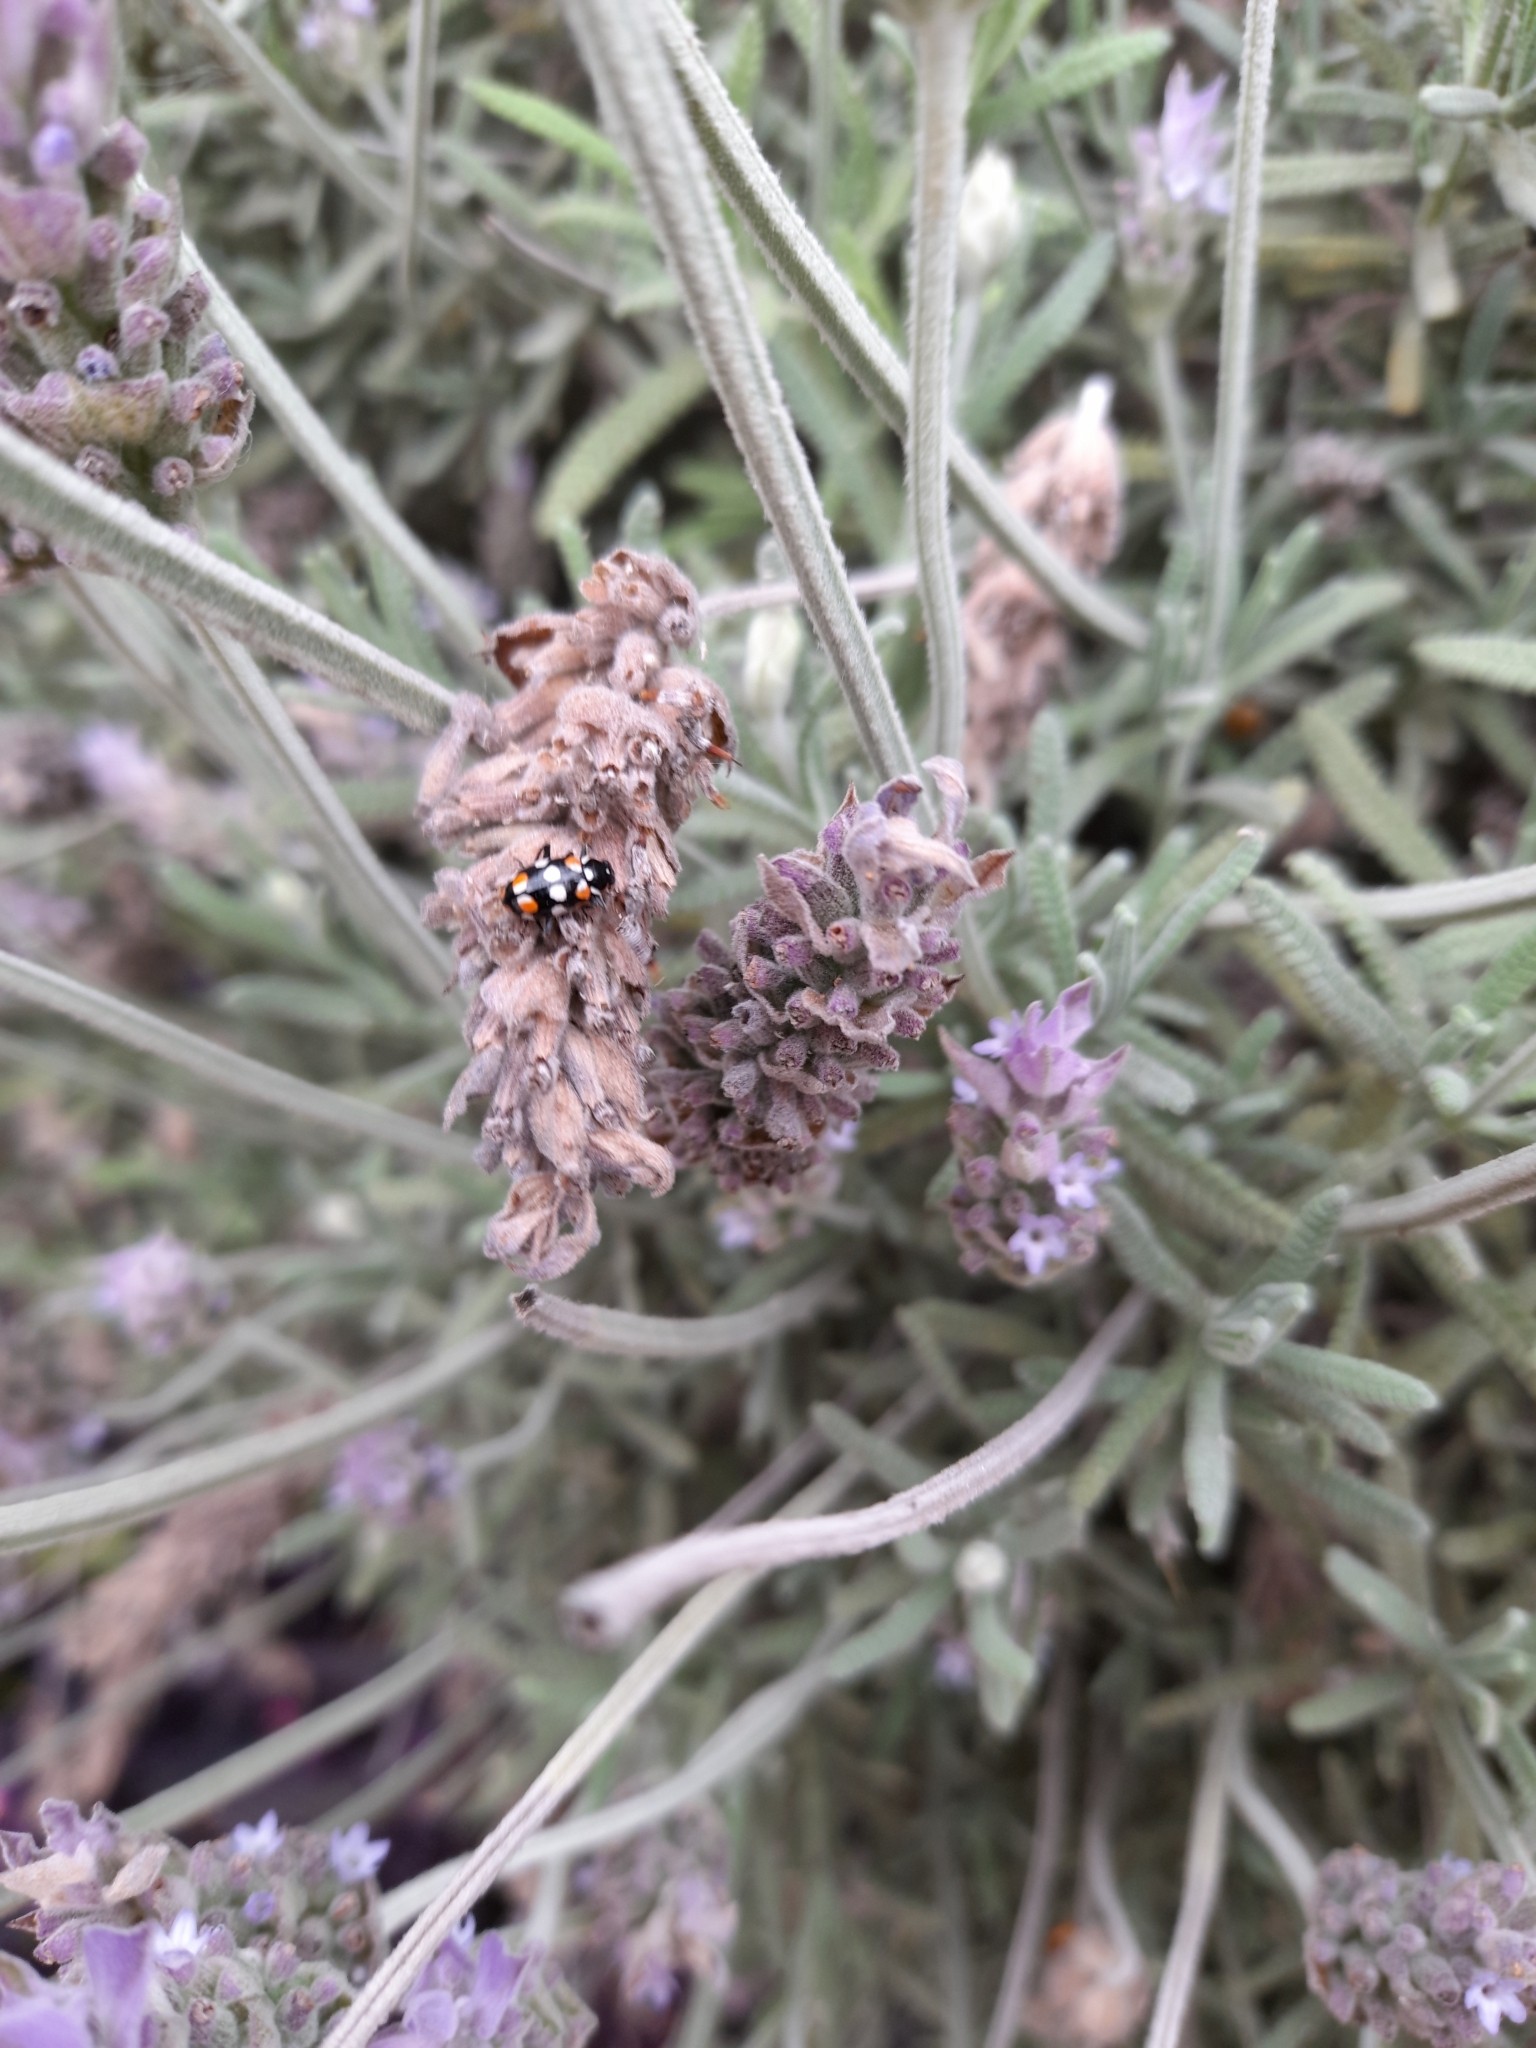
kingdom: Animalia
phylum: Arthropoda
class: Insecta
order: Coleoptera
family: Coccinellidae
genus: Eriopis
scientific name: Eriopis connexa
